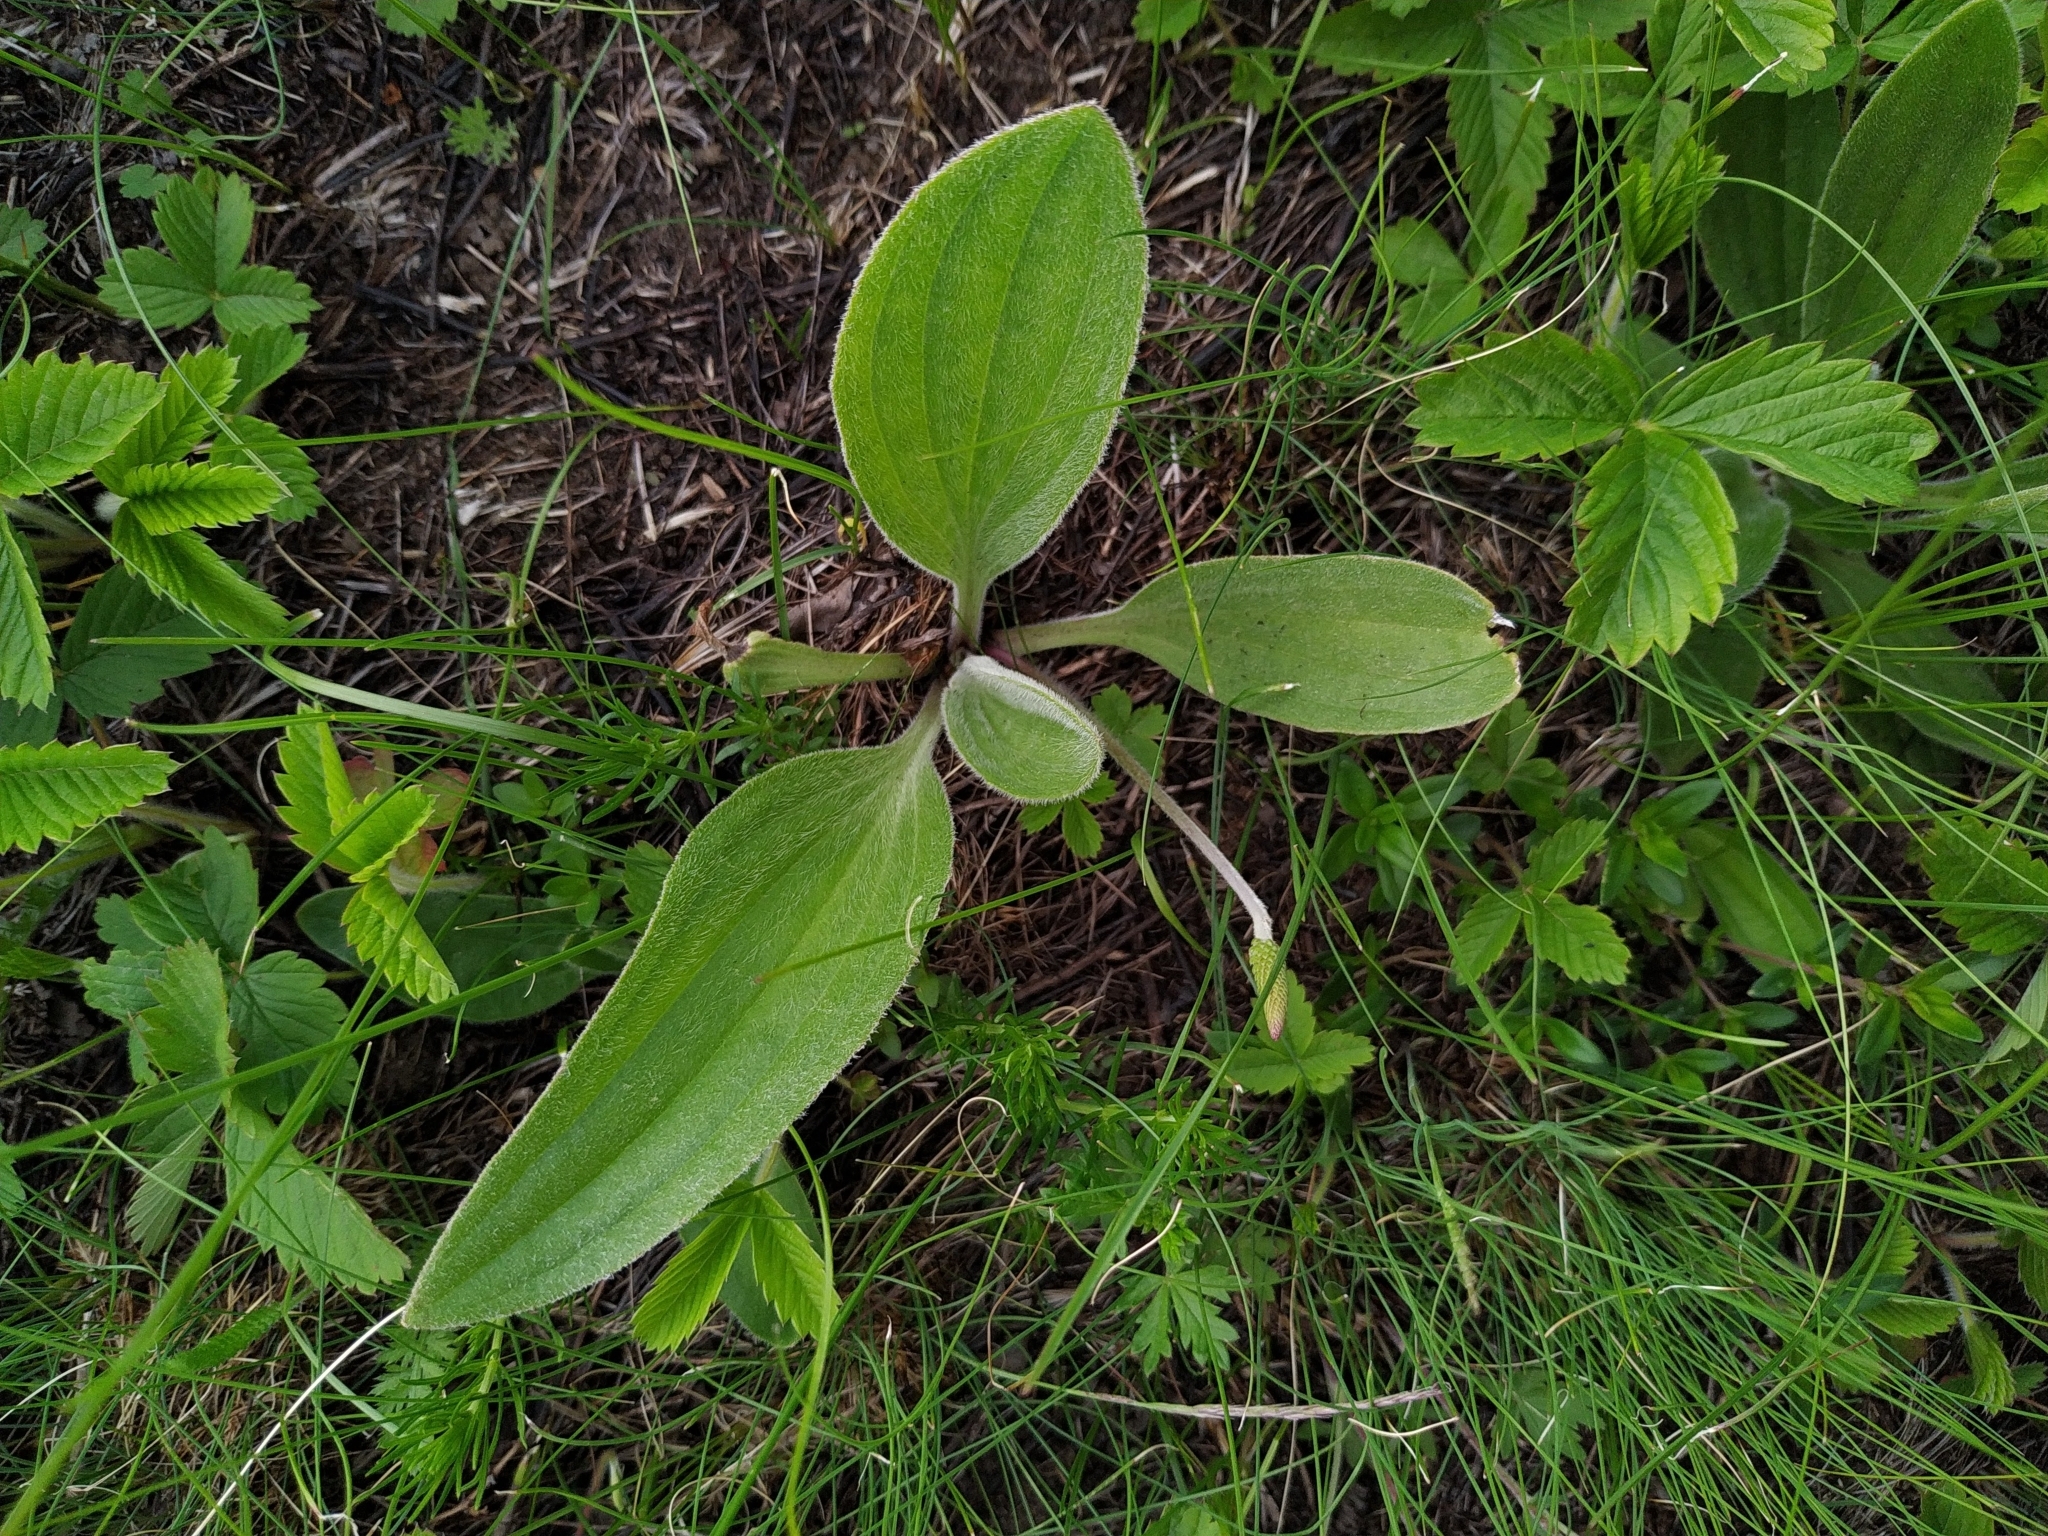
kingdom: Plantae
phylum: Tracheophyta
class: Magnoliopsida
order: Lamiales
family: Plantaginaceae
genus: Plantago
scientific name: Plantago urvillei
